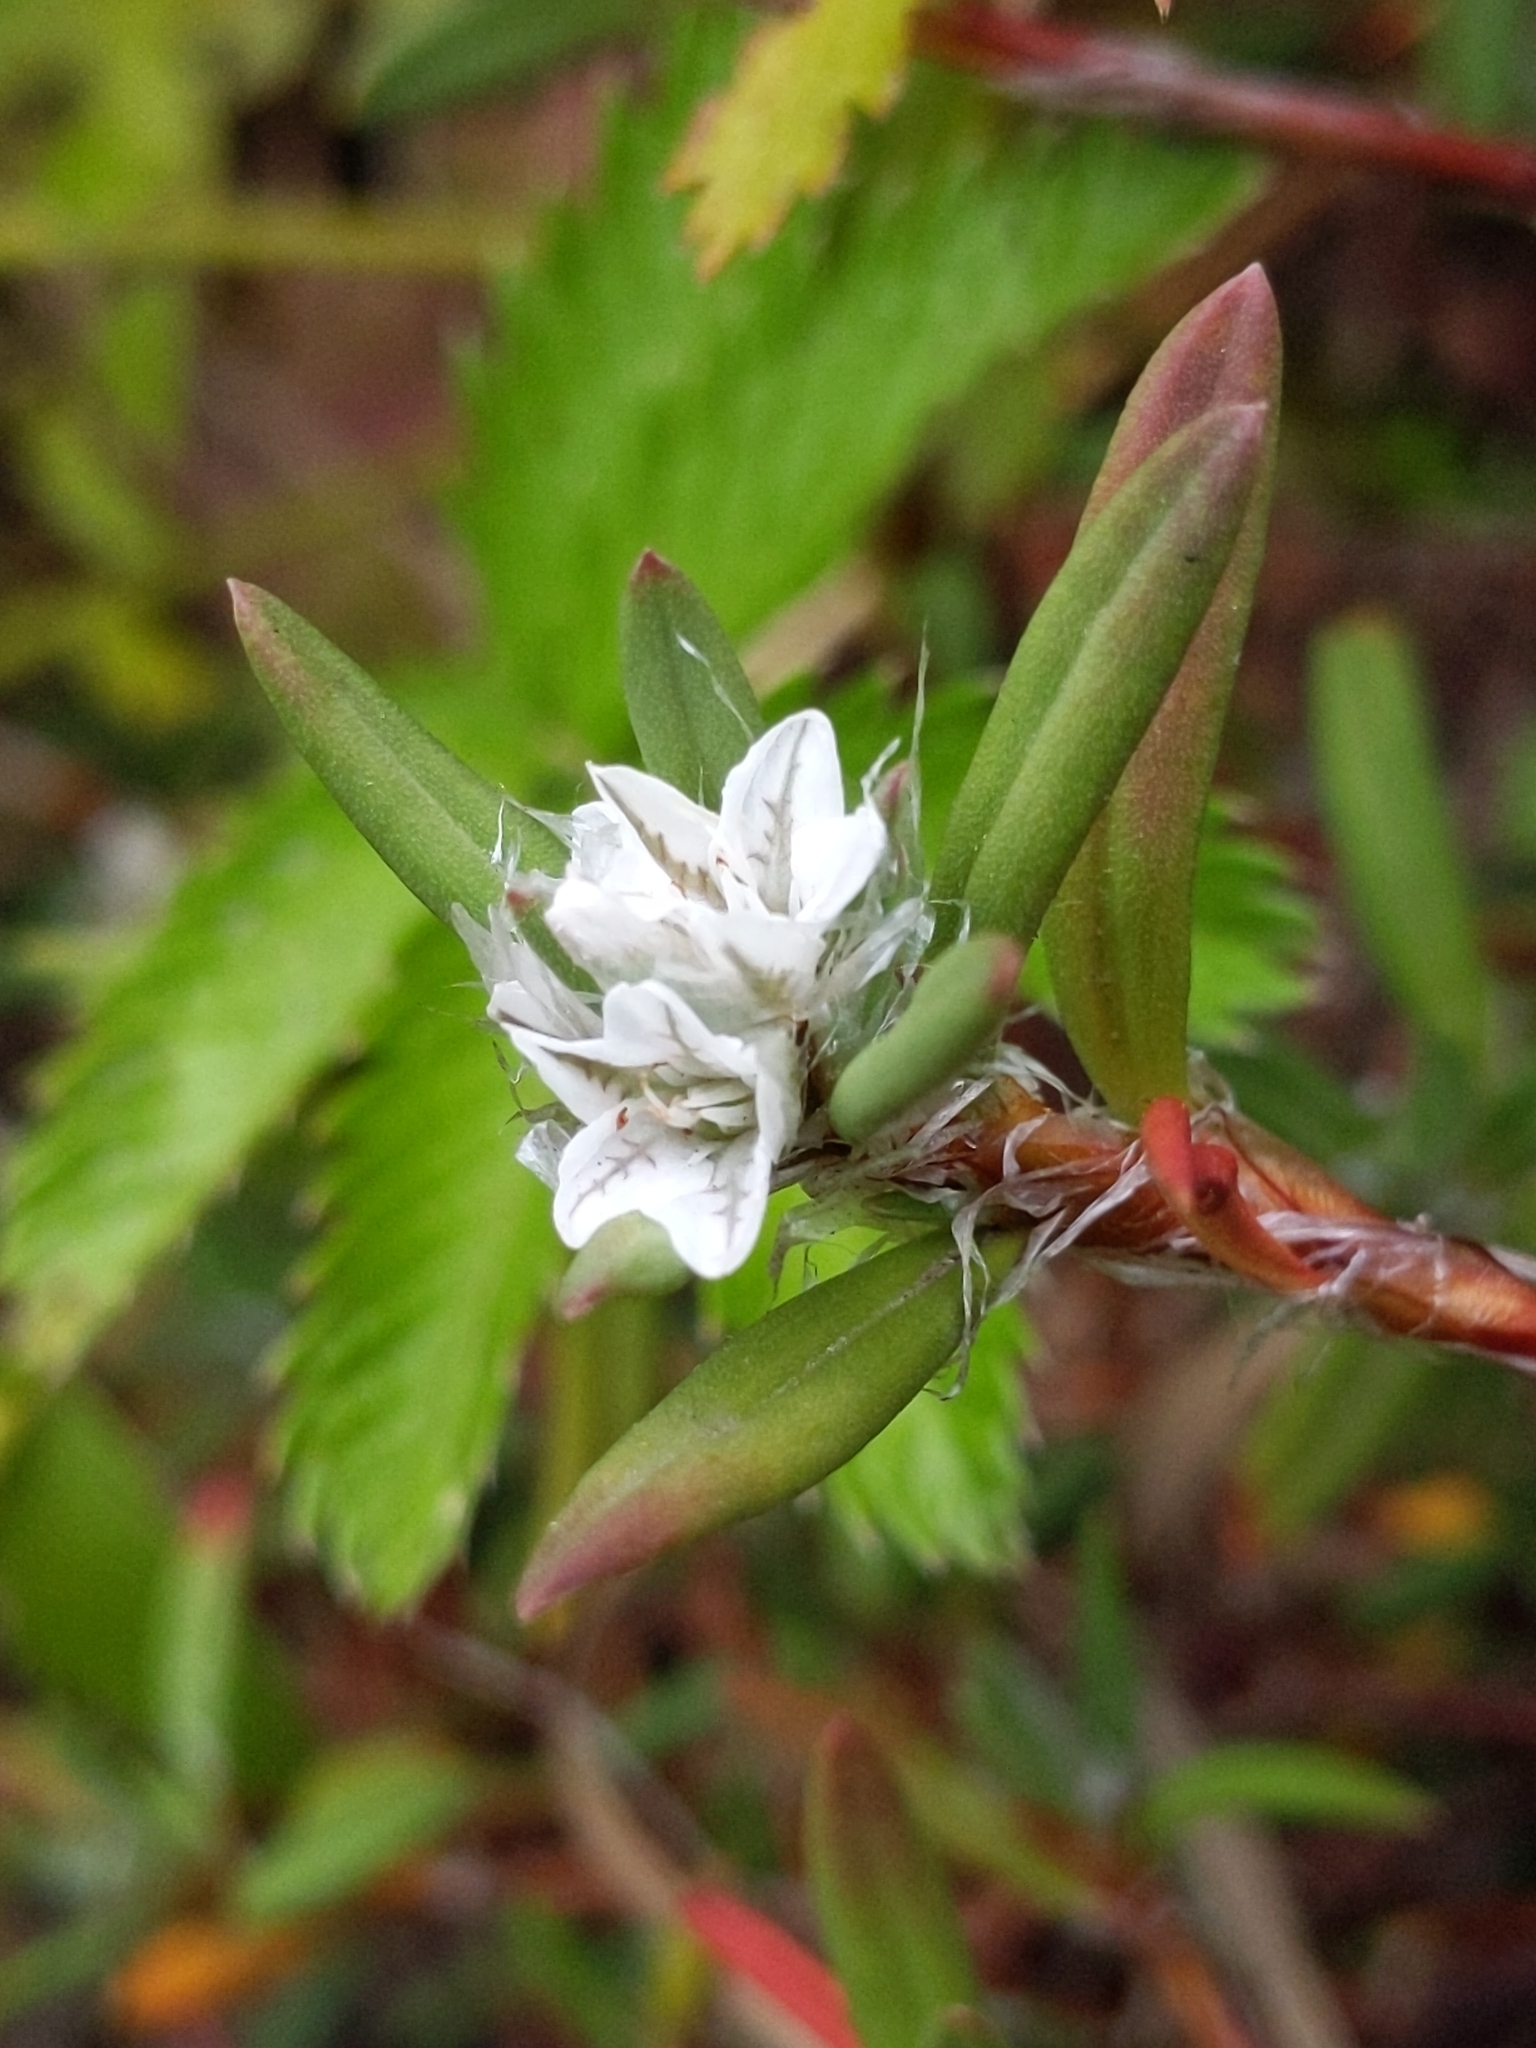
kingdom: Plantae
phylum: Tracheophyta
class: Magnoliopsida
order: Caryophyllales
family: Polygonaceae
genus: Polygonum
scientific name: Polygonum paronychia
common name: Dune knotweed
